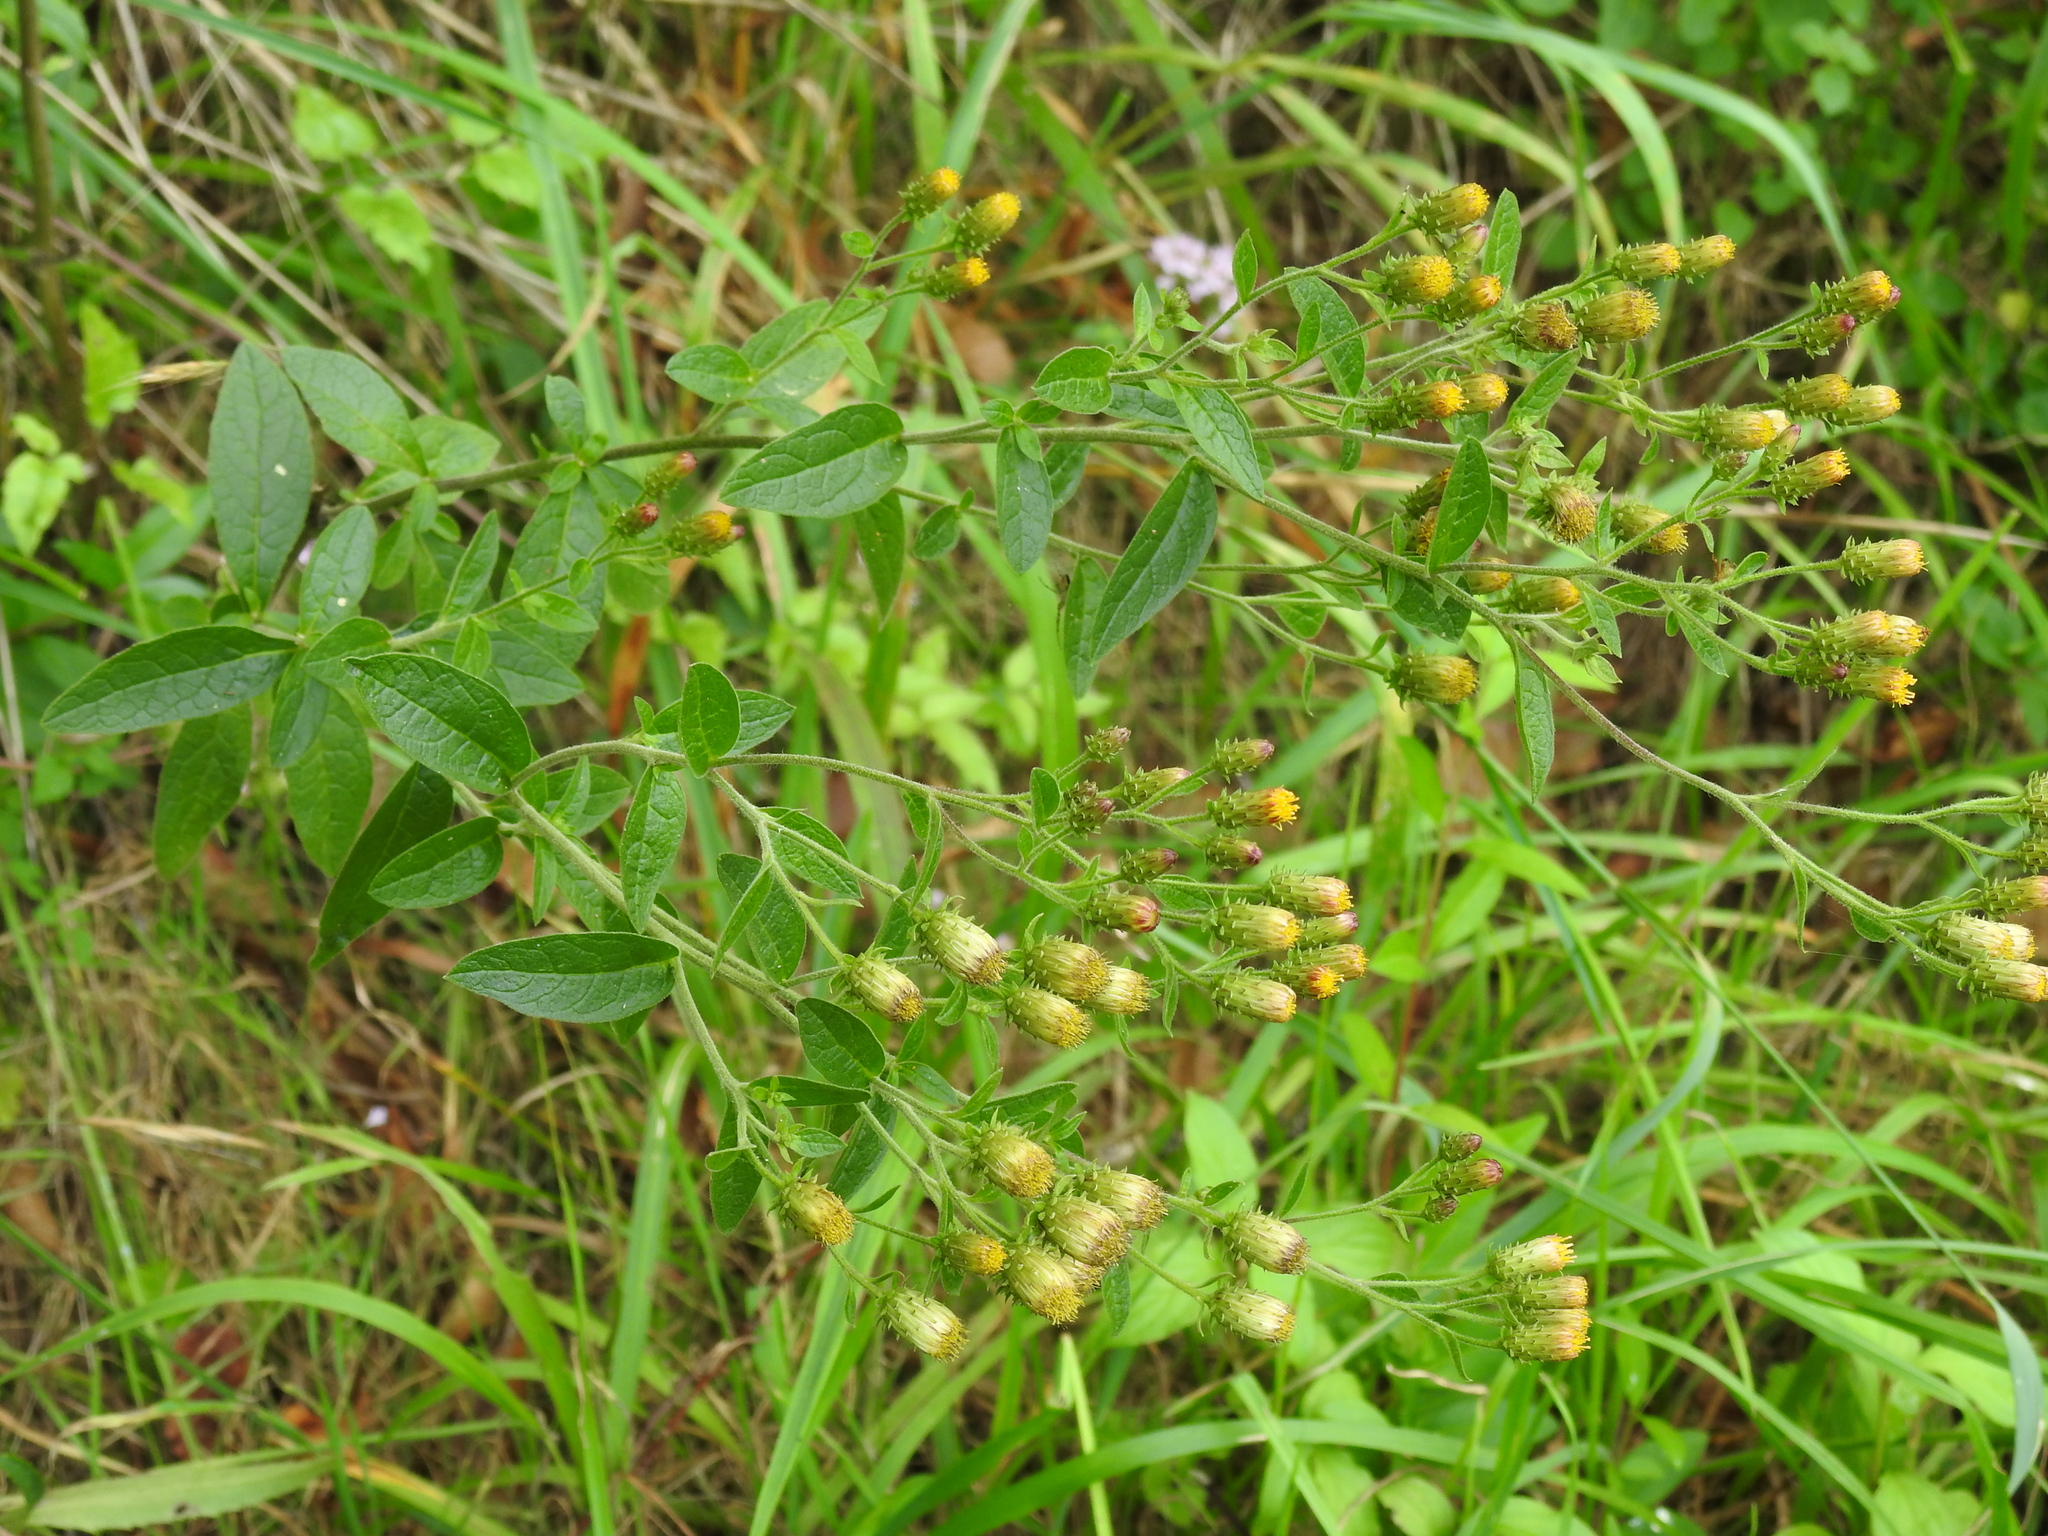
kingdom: Plantae
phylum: Tracheophyta
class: Magnoliopsida
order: Asterales
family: Asteraceae
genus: Pentanema
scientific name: Pentanema squarrosum
